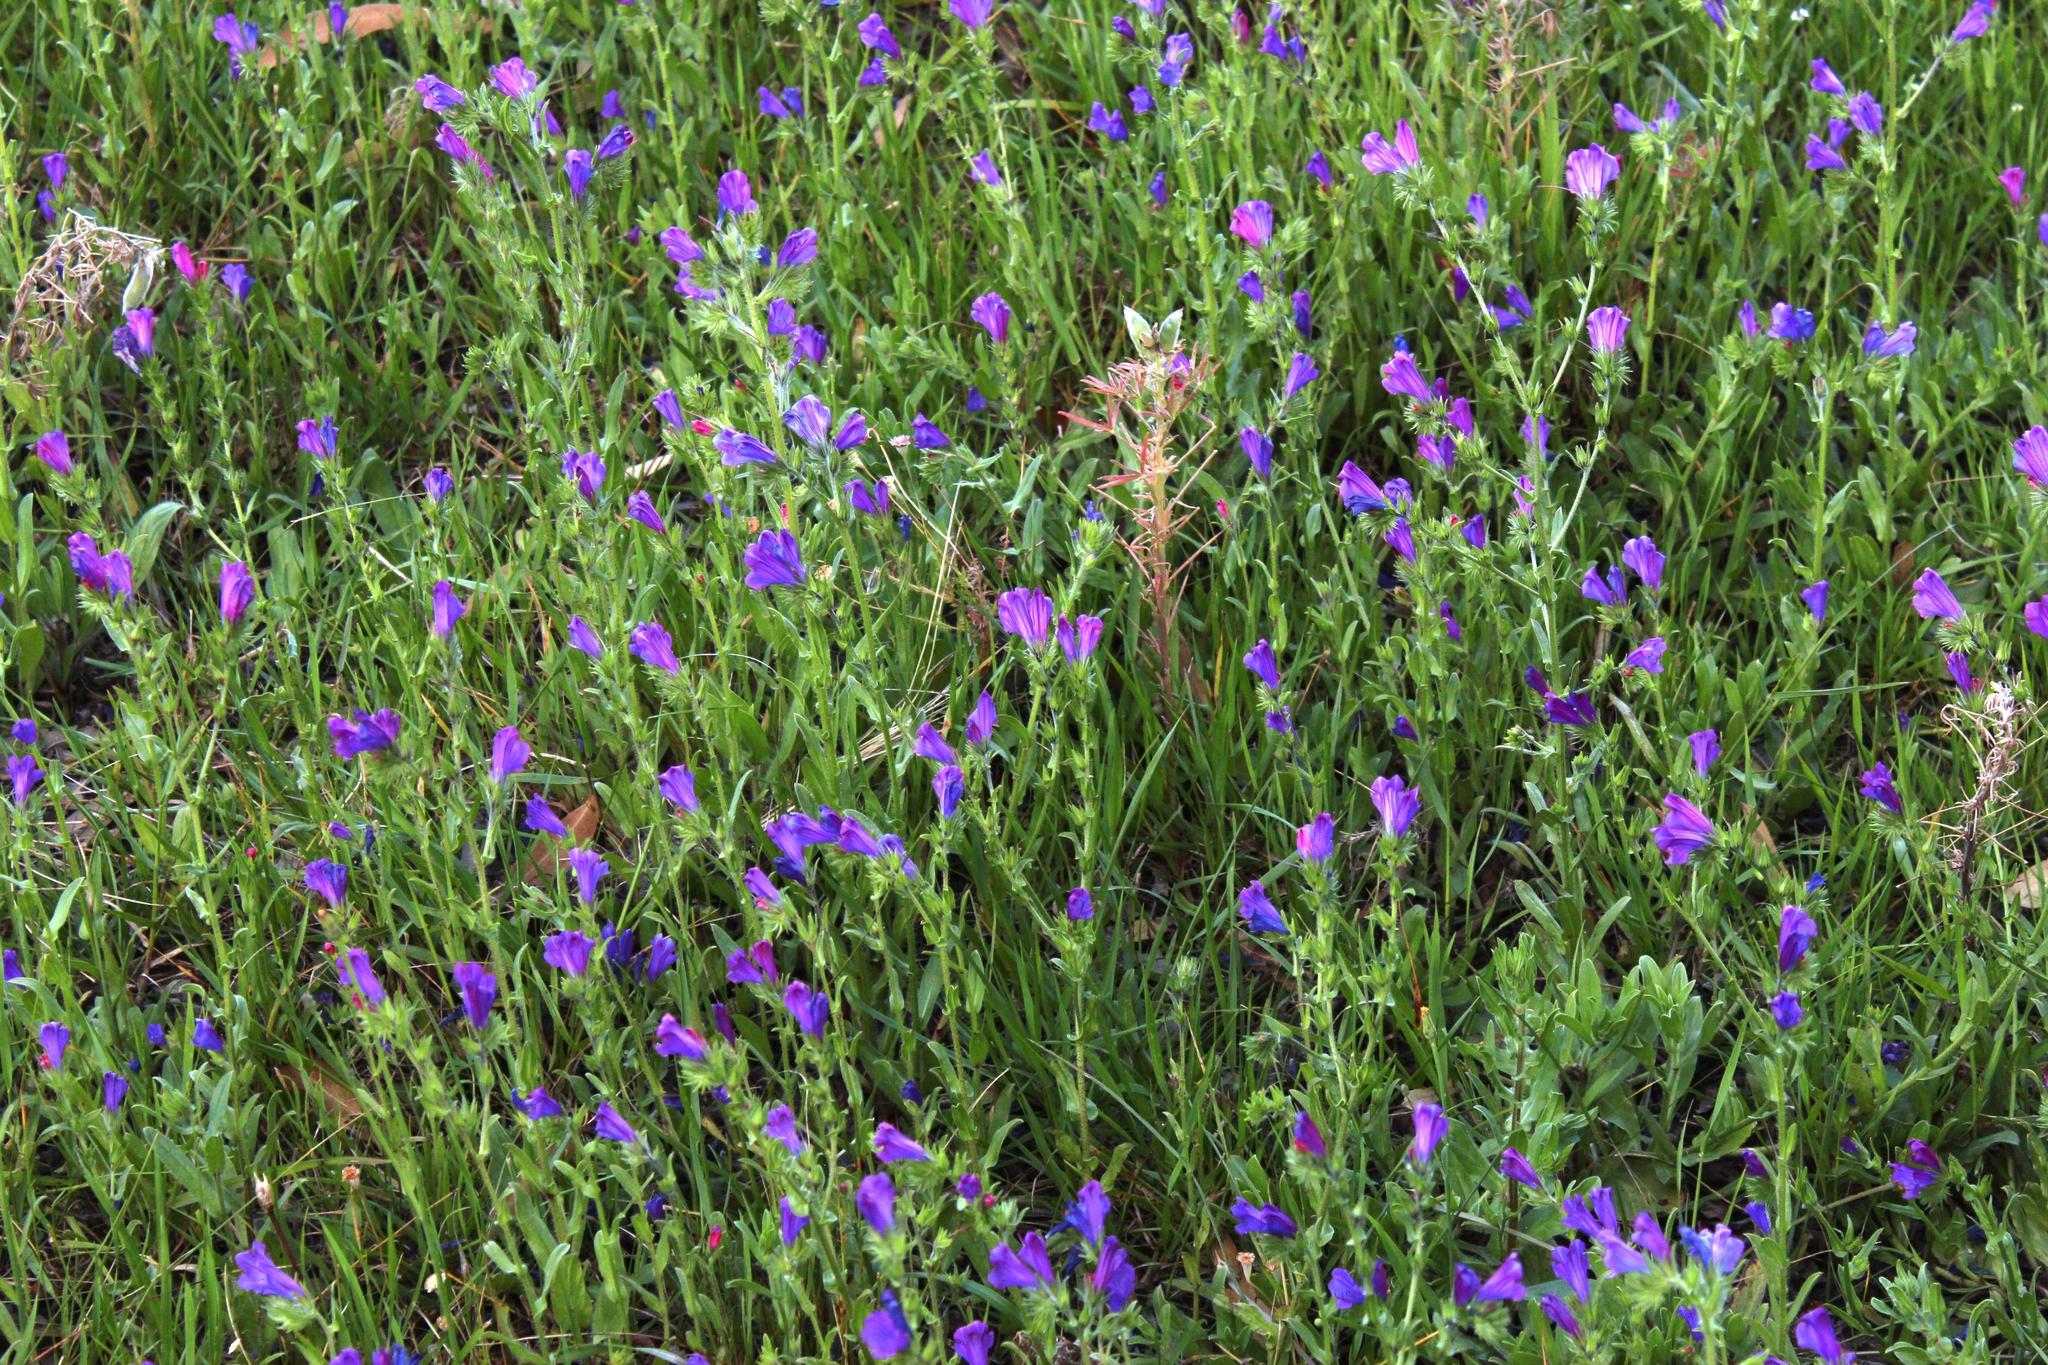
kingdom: Plantae
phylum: Tracheophyta
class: Magnoliopsida
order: Boraginales
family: Boraginaceae
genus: Echium
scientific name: Echium plantagineum
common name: Purple viper's-bugloss
